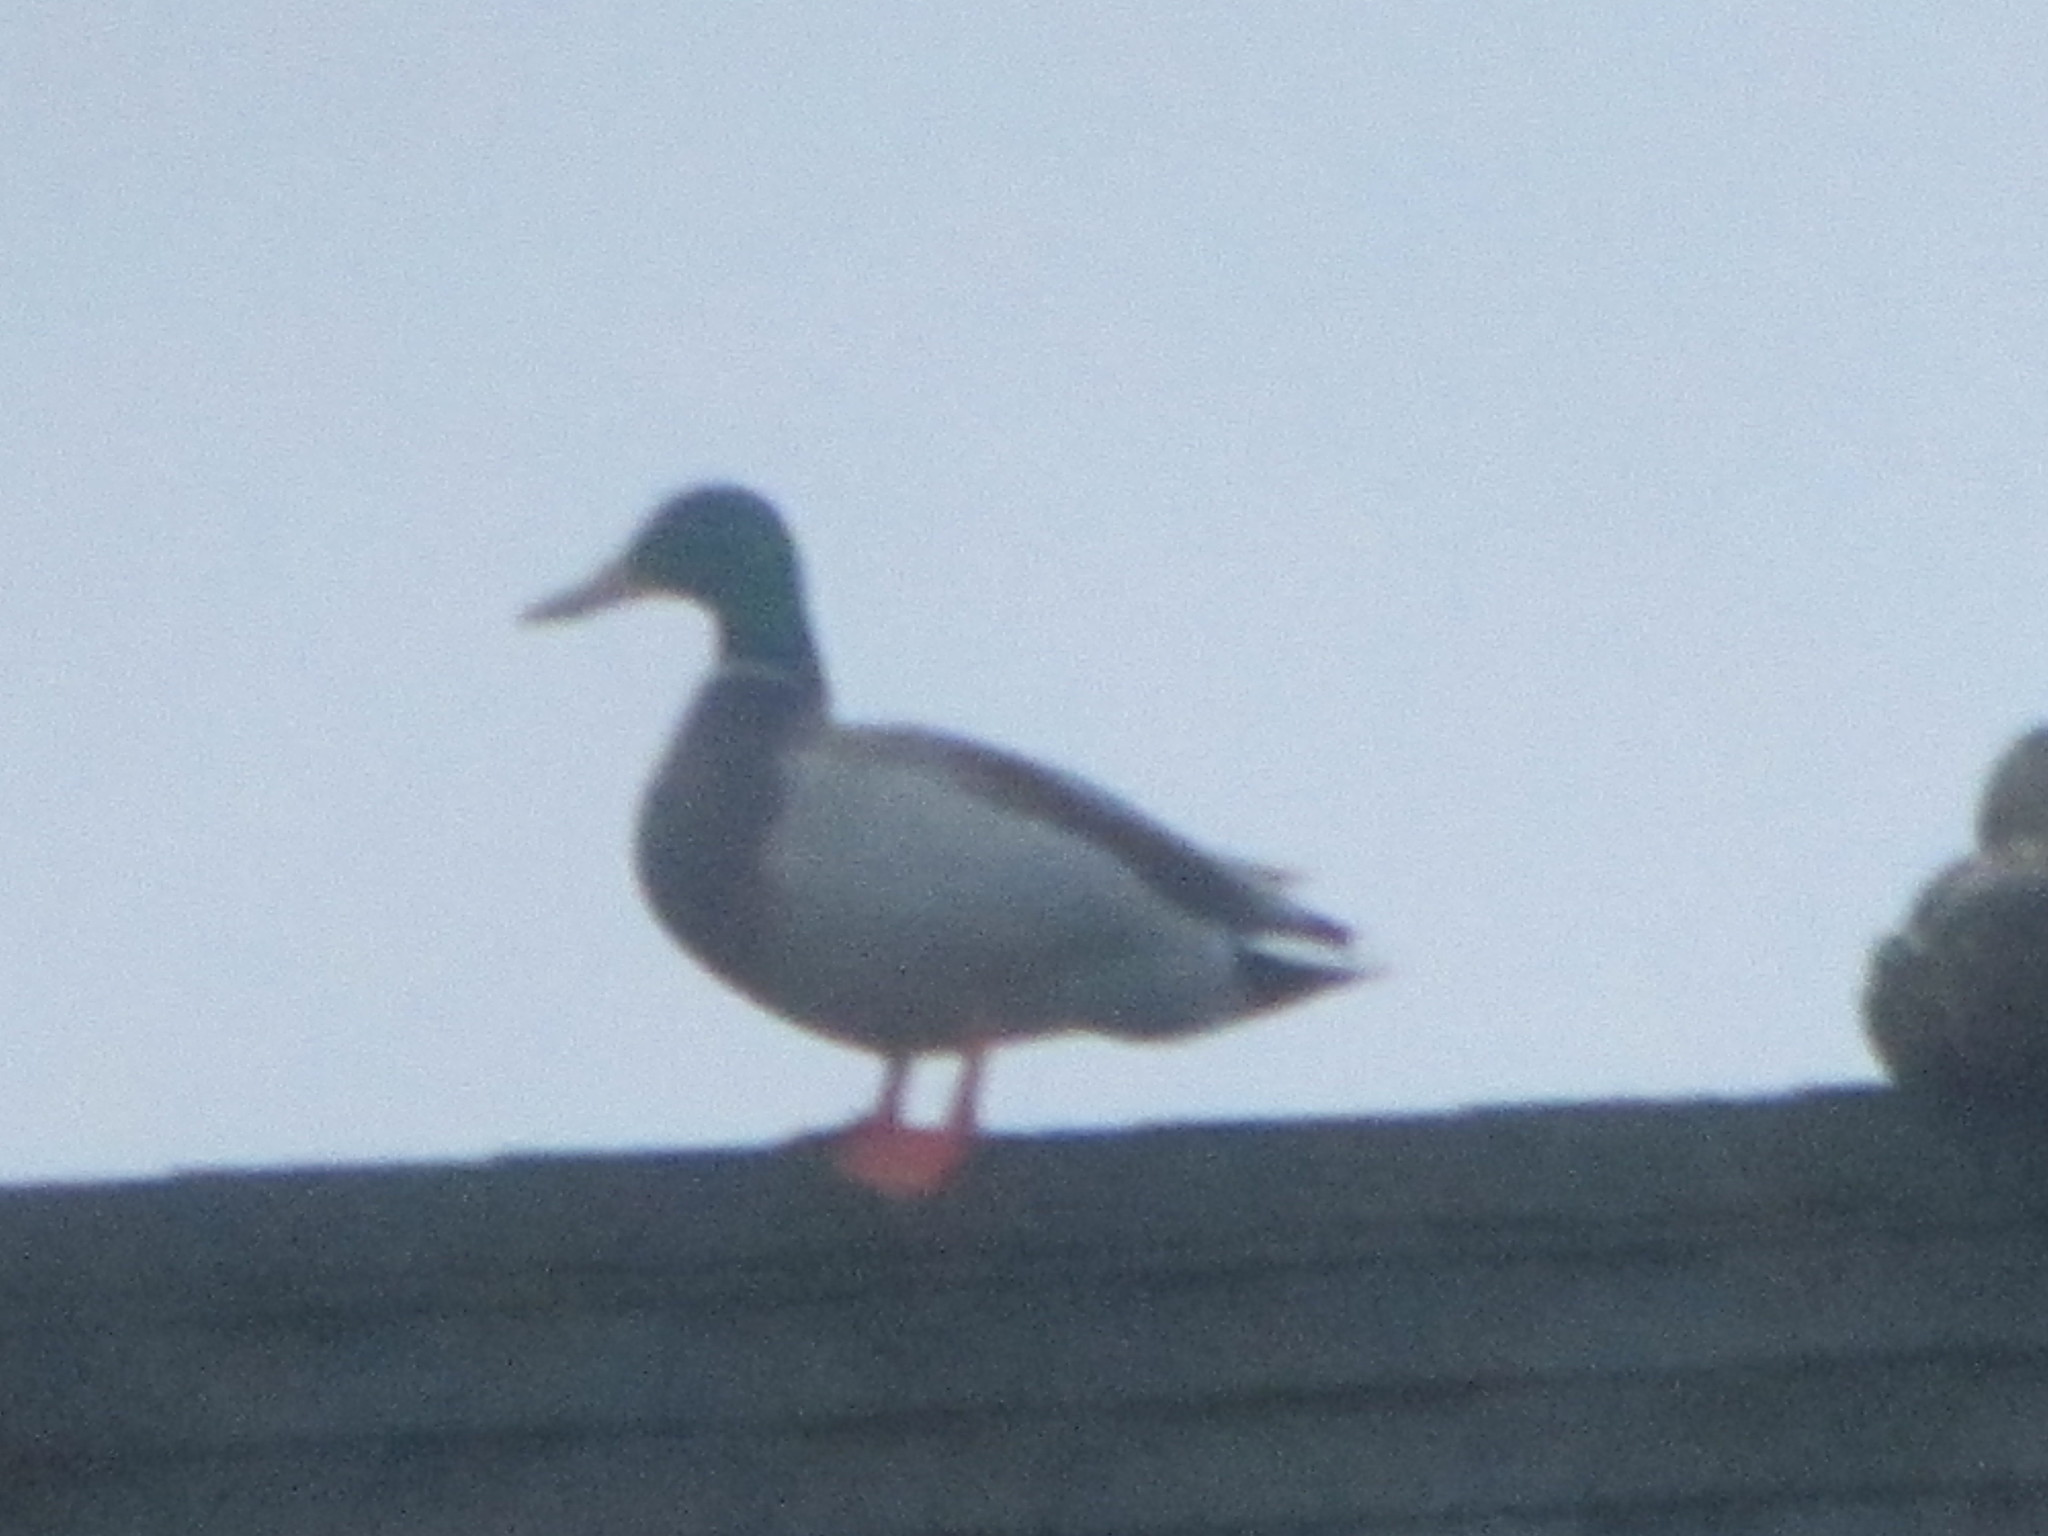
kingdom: Animalia
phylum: Chordata
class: Aves
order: Anseriformes
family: Anatidae
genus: Anas
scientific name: Anas platyrhynchos
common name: Mallard
